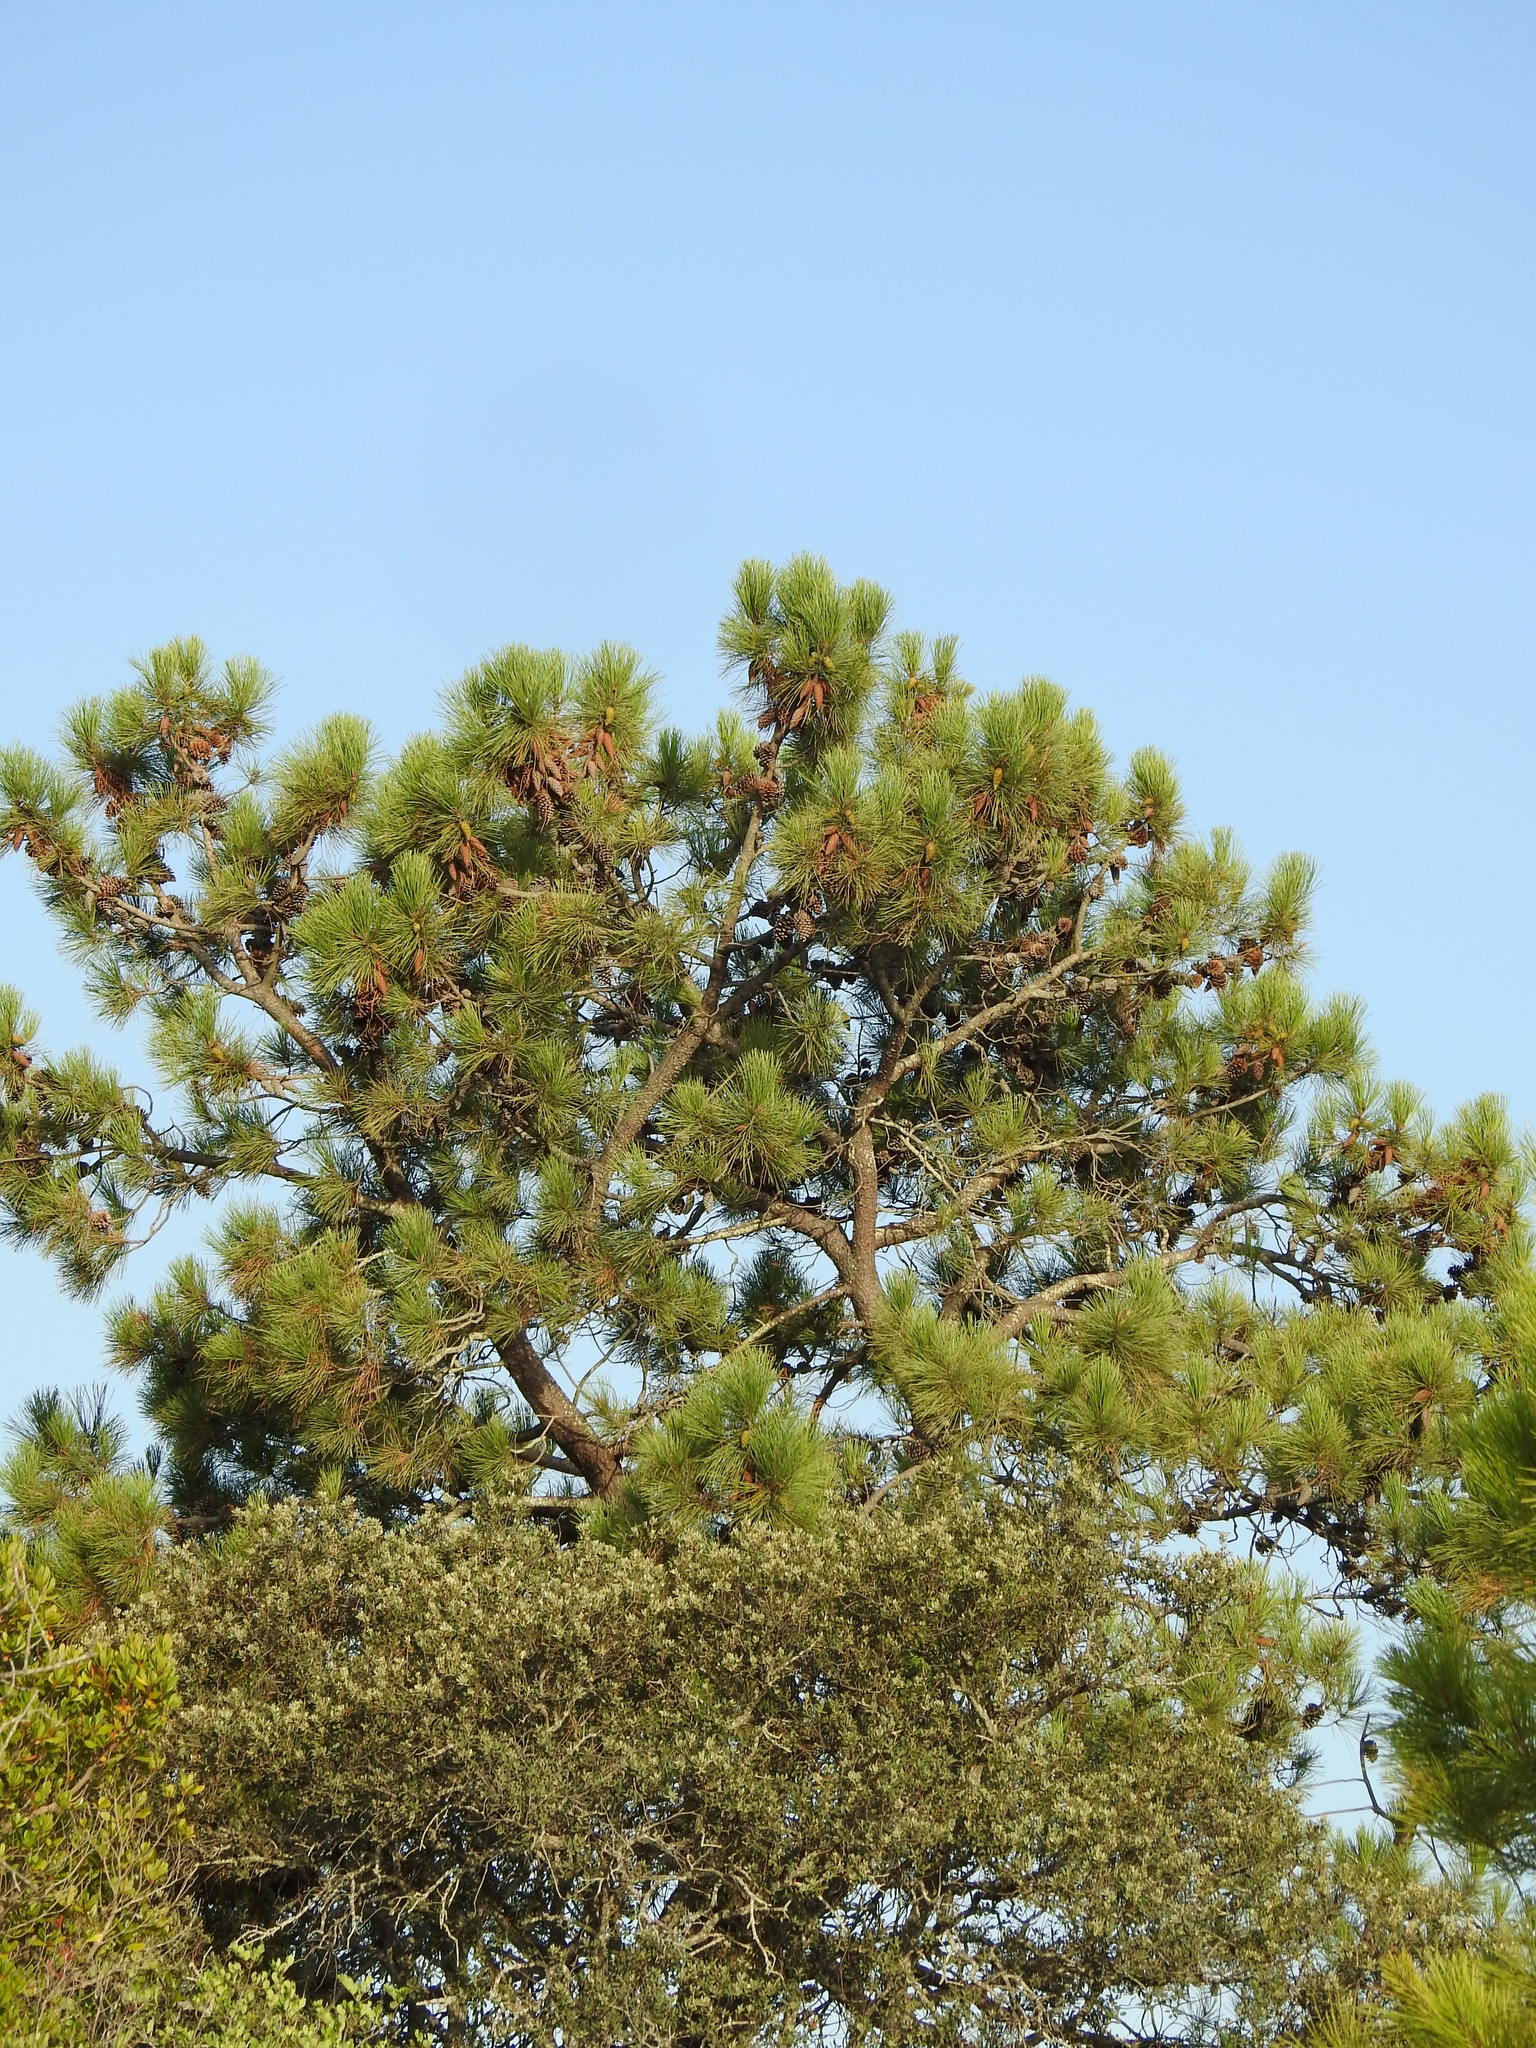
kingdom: Plantae
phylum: Tracheophyta
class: Pinopsida
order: Pinales
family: Pinaceae
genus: Pinus
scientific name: Pinus pinaster
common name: Maritime pine
